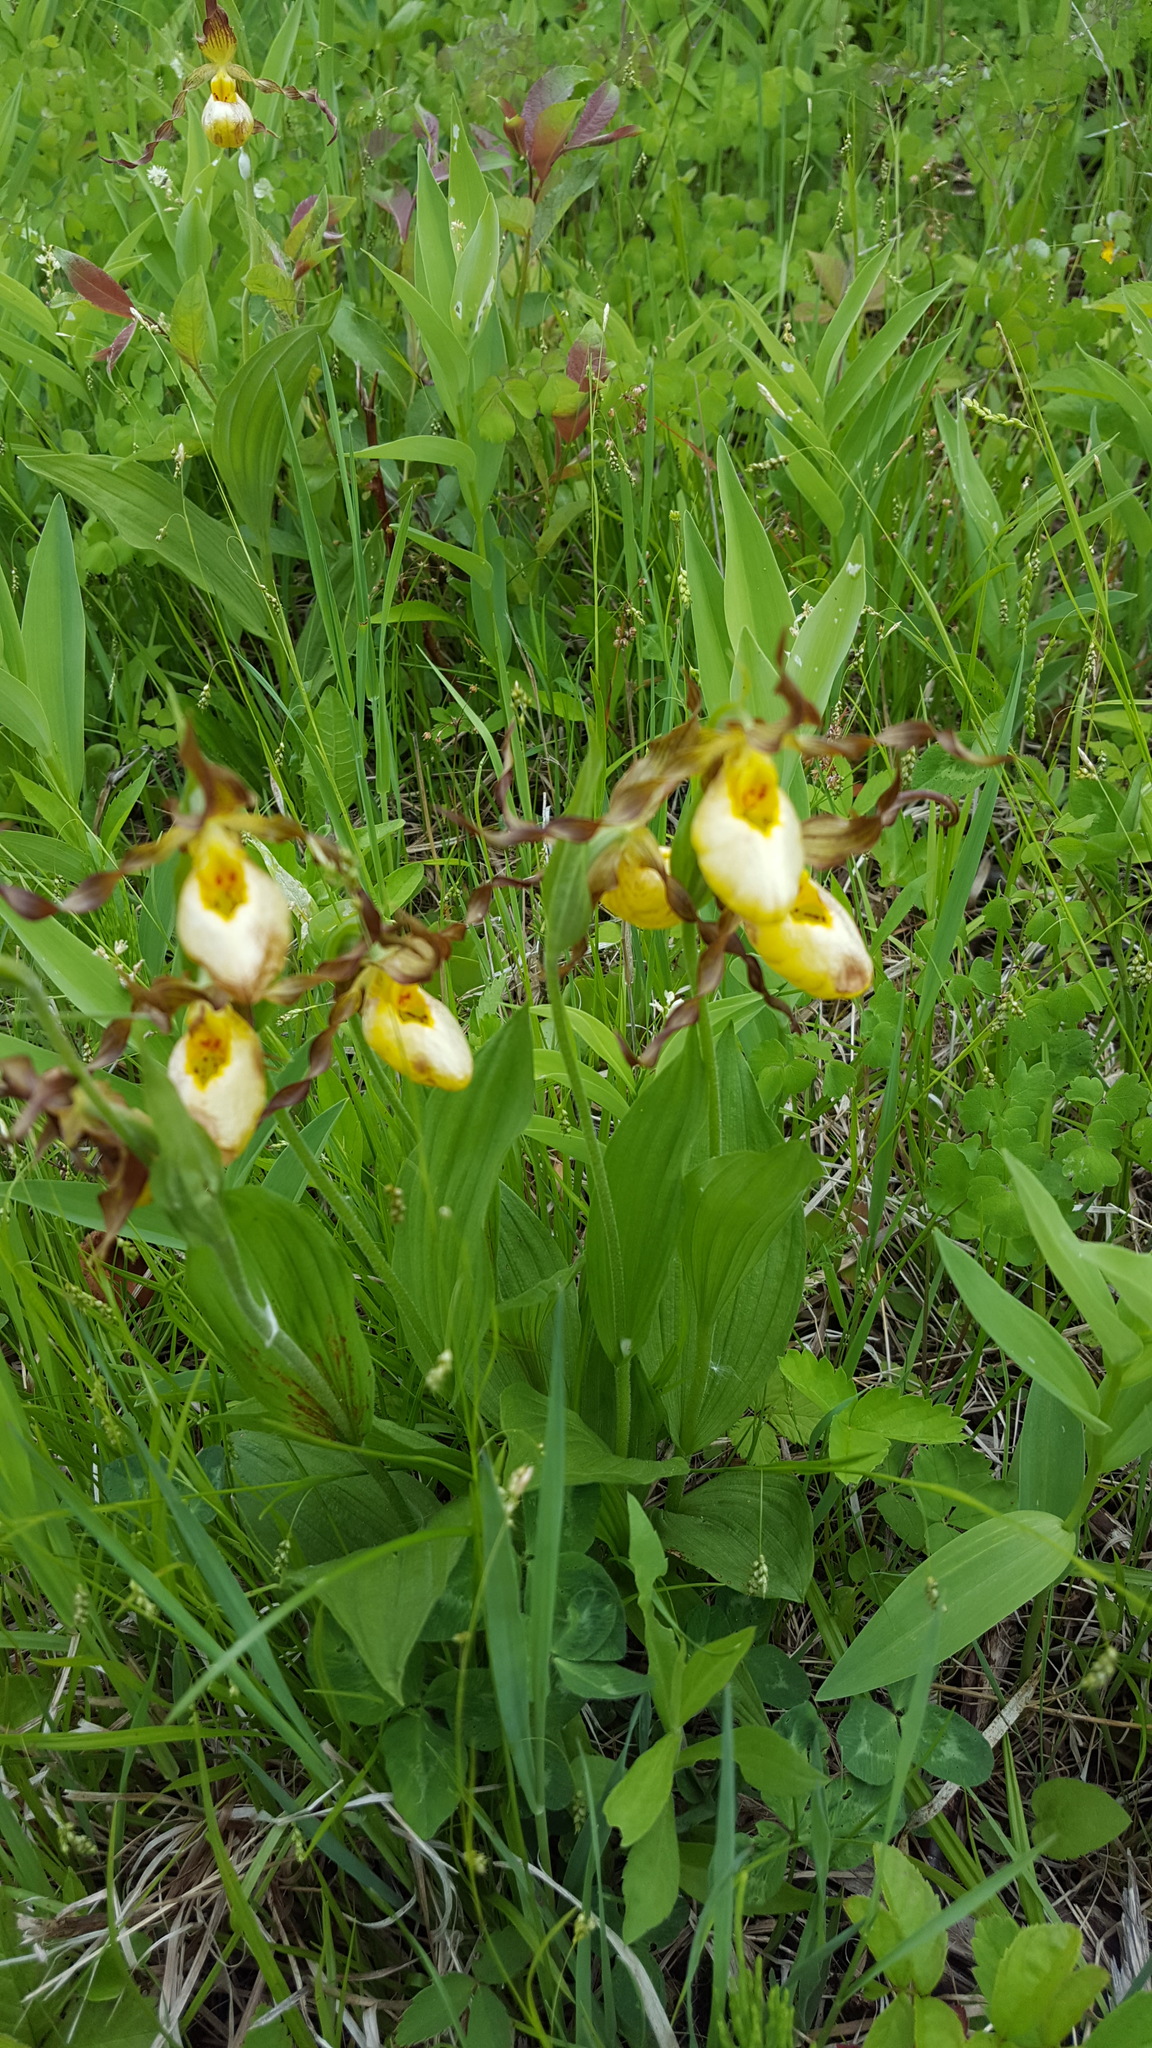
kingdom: Plantae
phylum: Tracheophyta
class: Liliopsida
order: Asparagales
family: Orchidaceae
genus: Cypripedium
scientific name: Cypripedium parviflorum
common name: American yellow lady's-slipper
